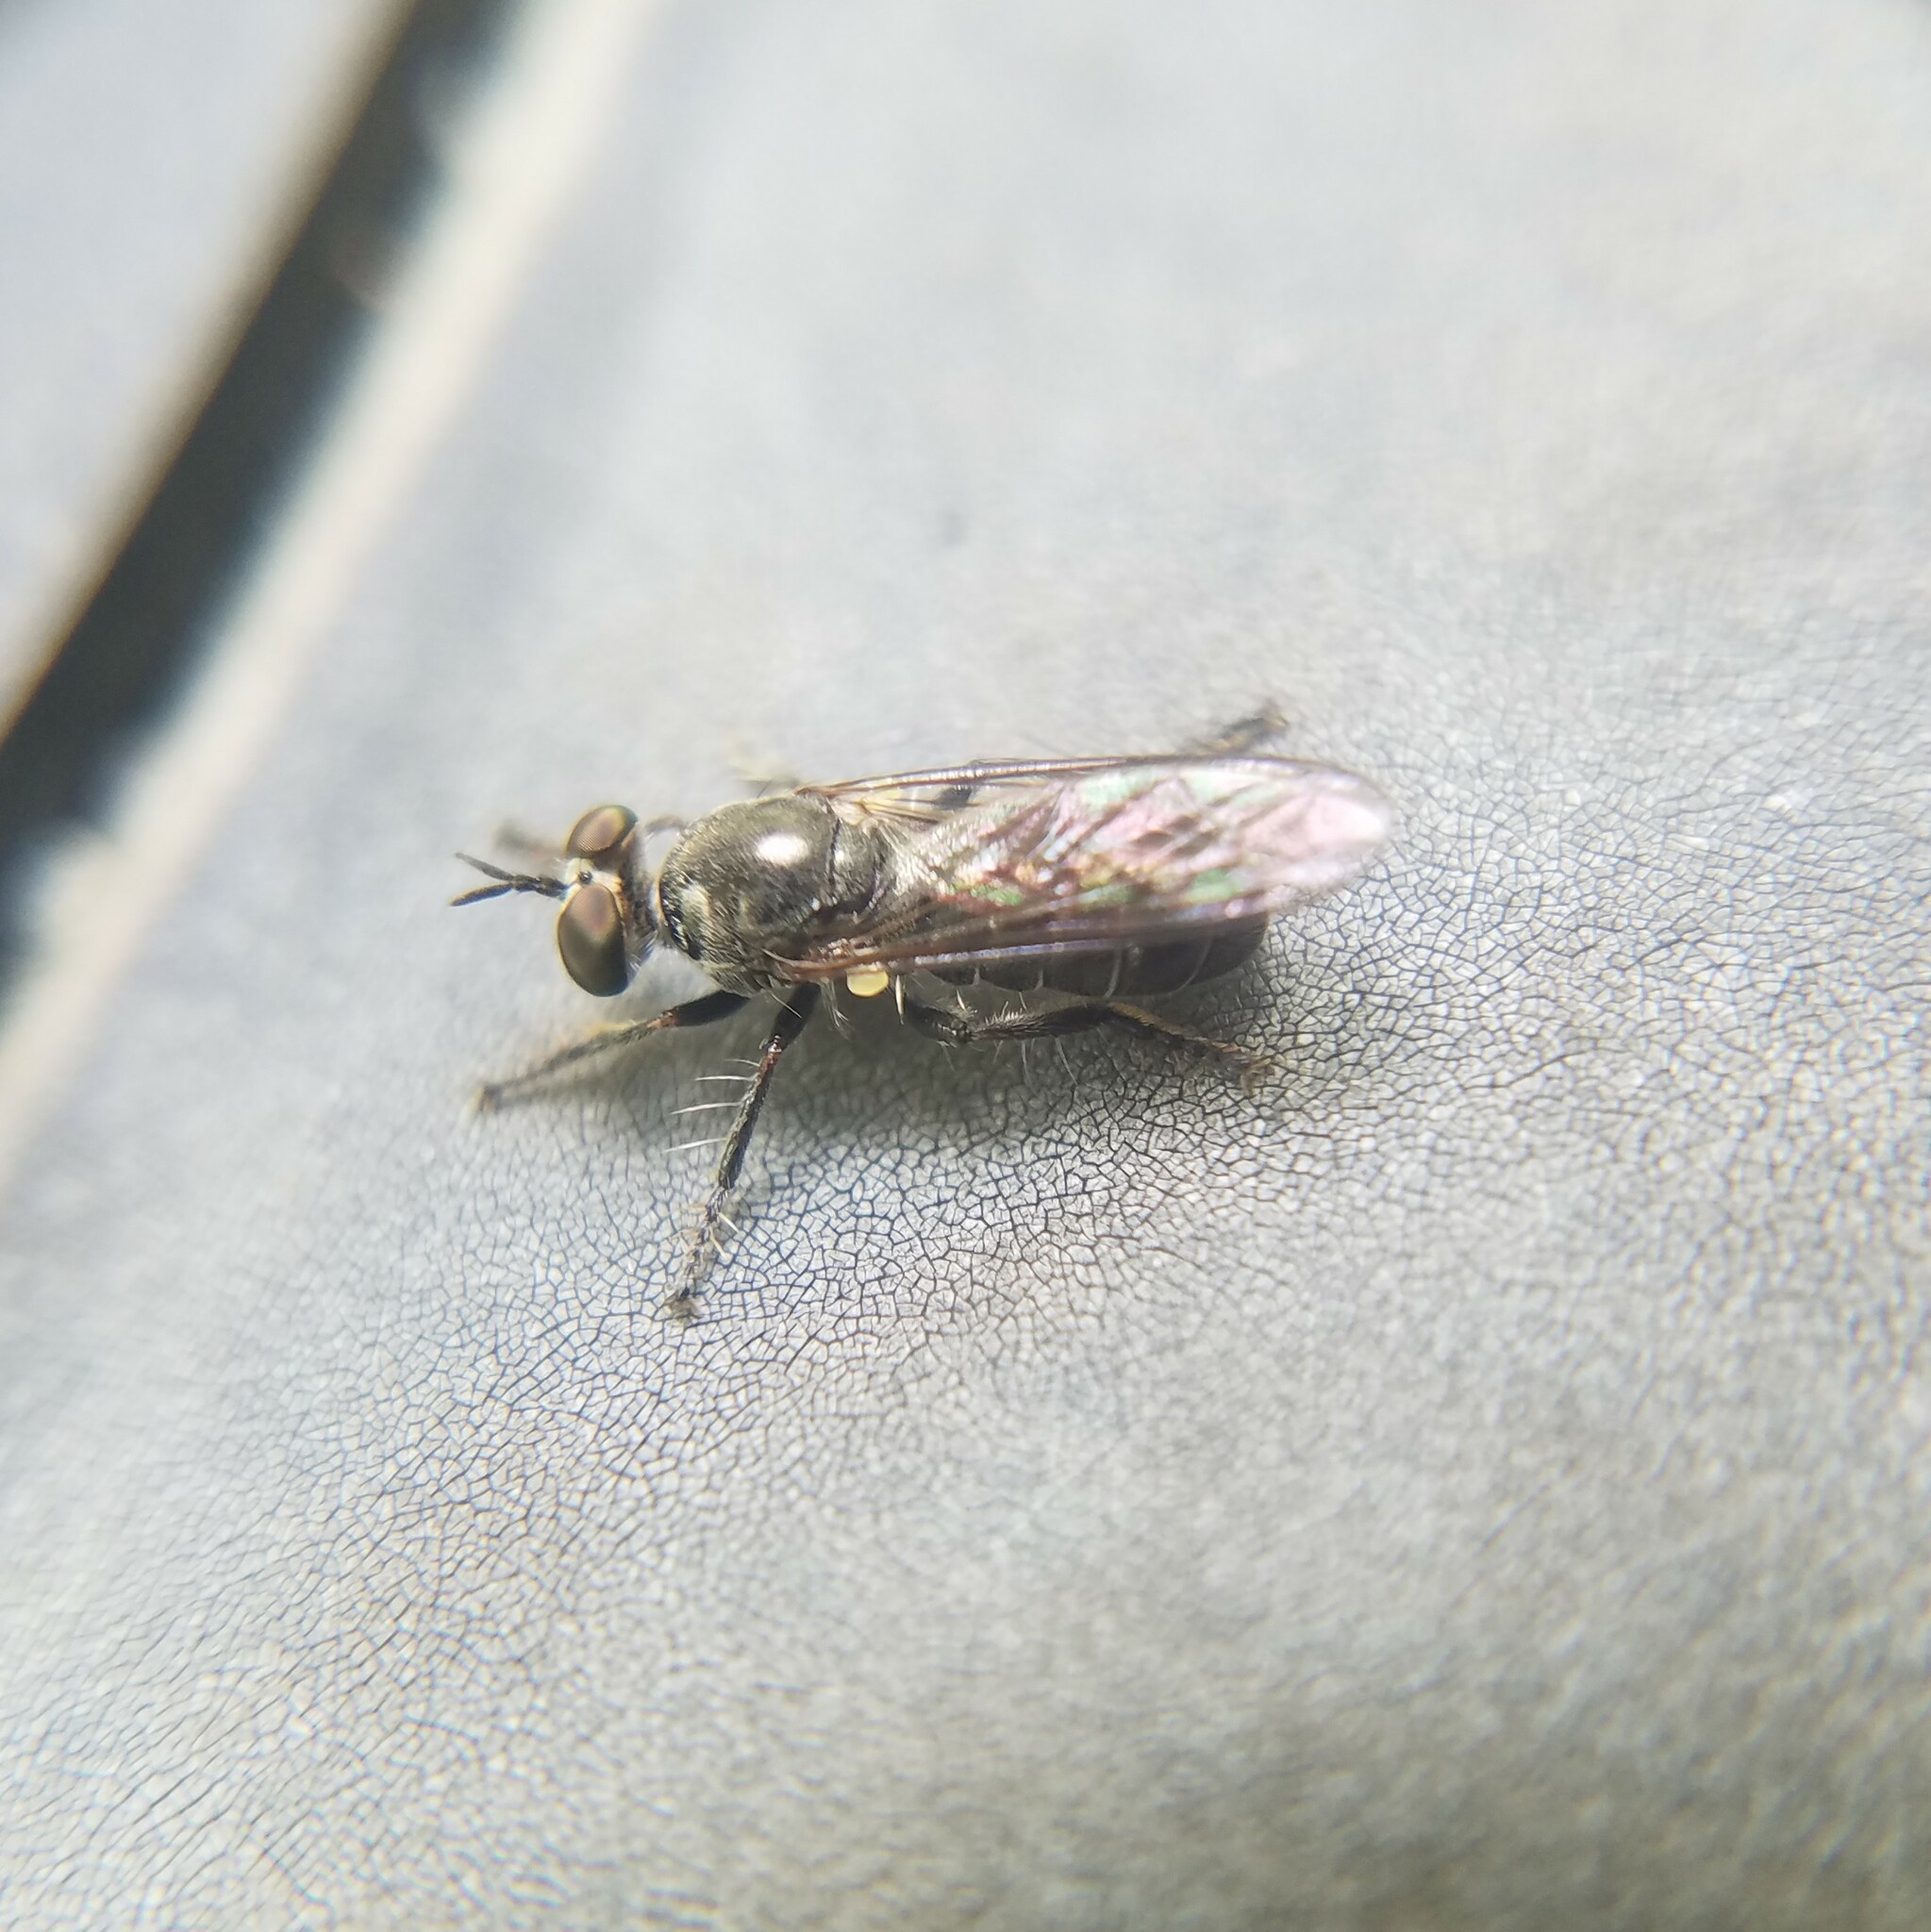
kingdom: Animalia
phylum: Arthropoda
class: Insecta
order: Diptera
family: Asilidae
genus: Atomosia
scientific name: Atomosia puella
